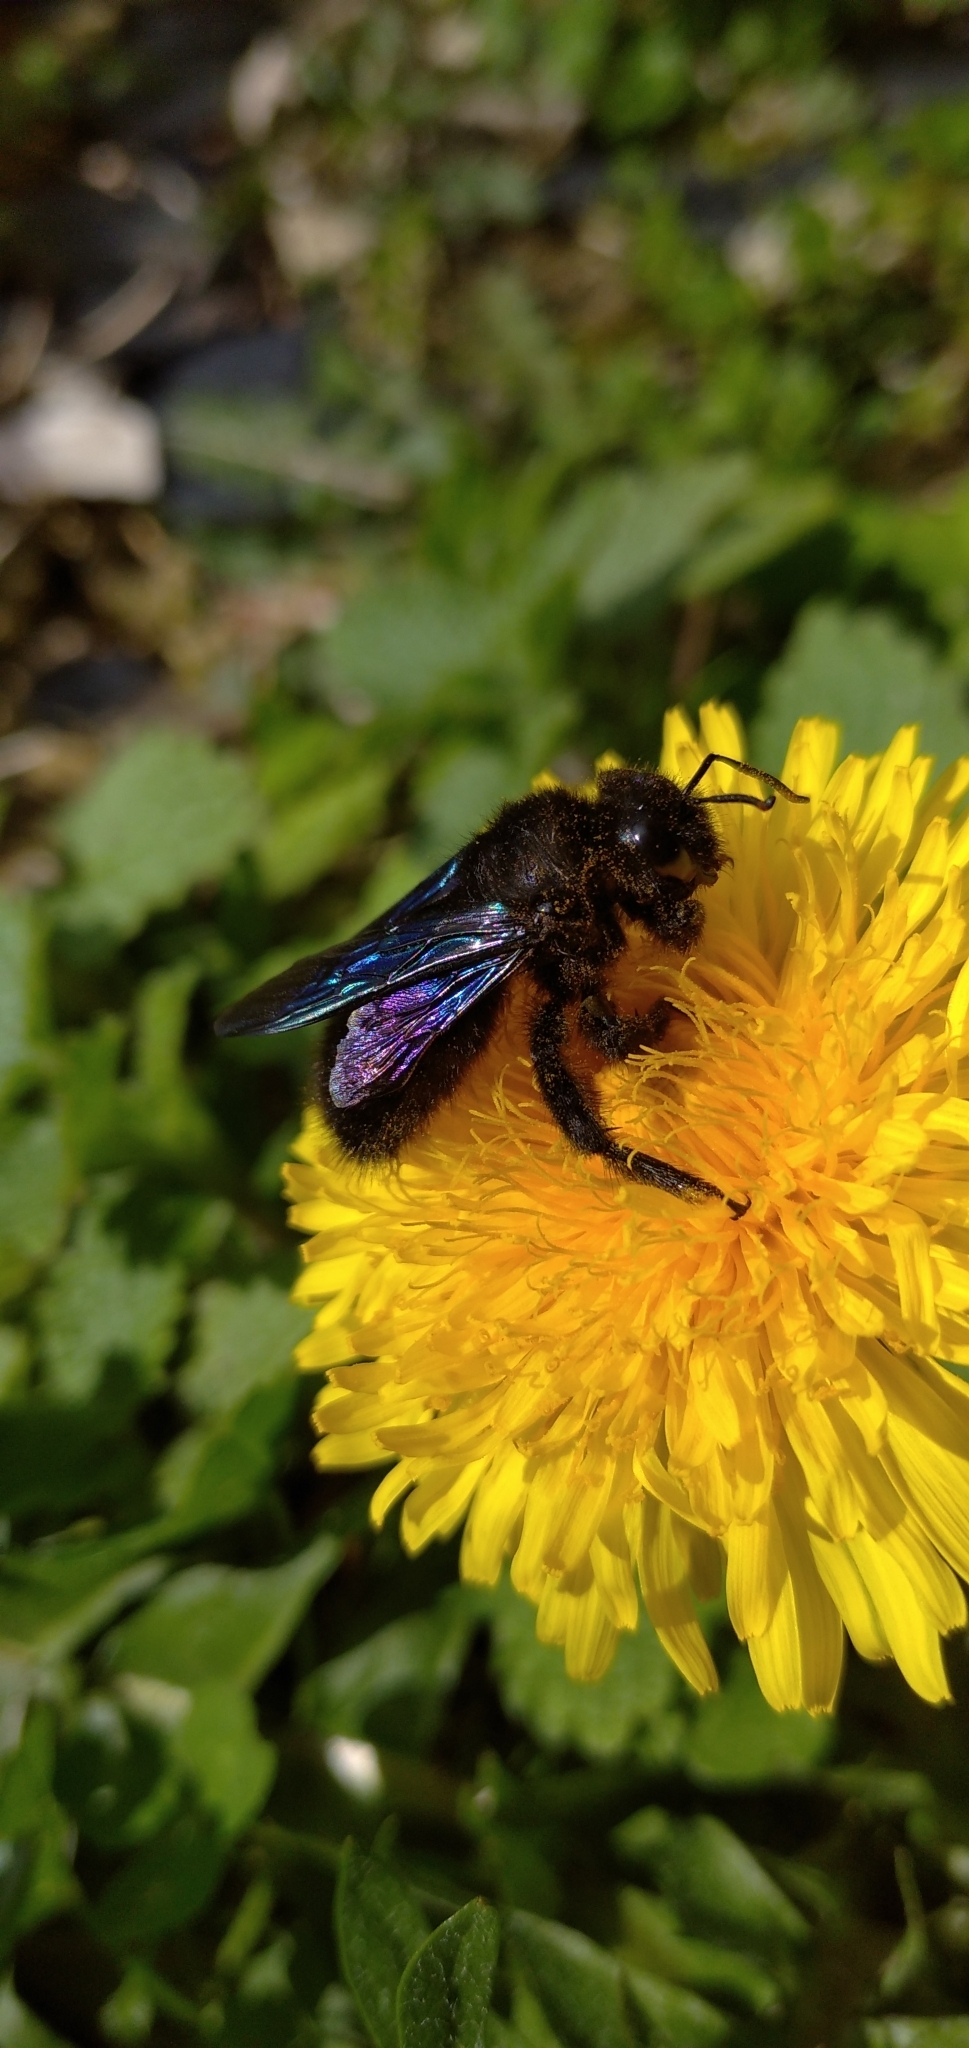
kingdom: Animalia
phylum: Arthropoda
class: Insecta
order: Hymenoptera
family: Apidae
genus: Xylocopa
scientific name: Xylocopa violacea
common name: Violet carpenter bee
